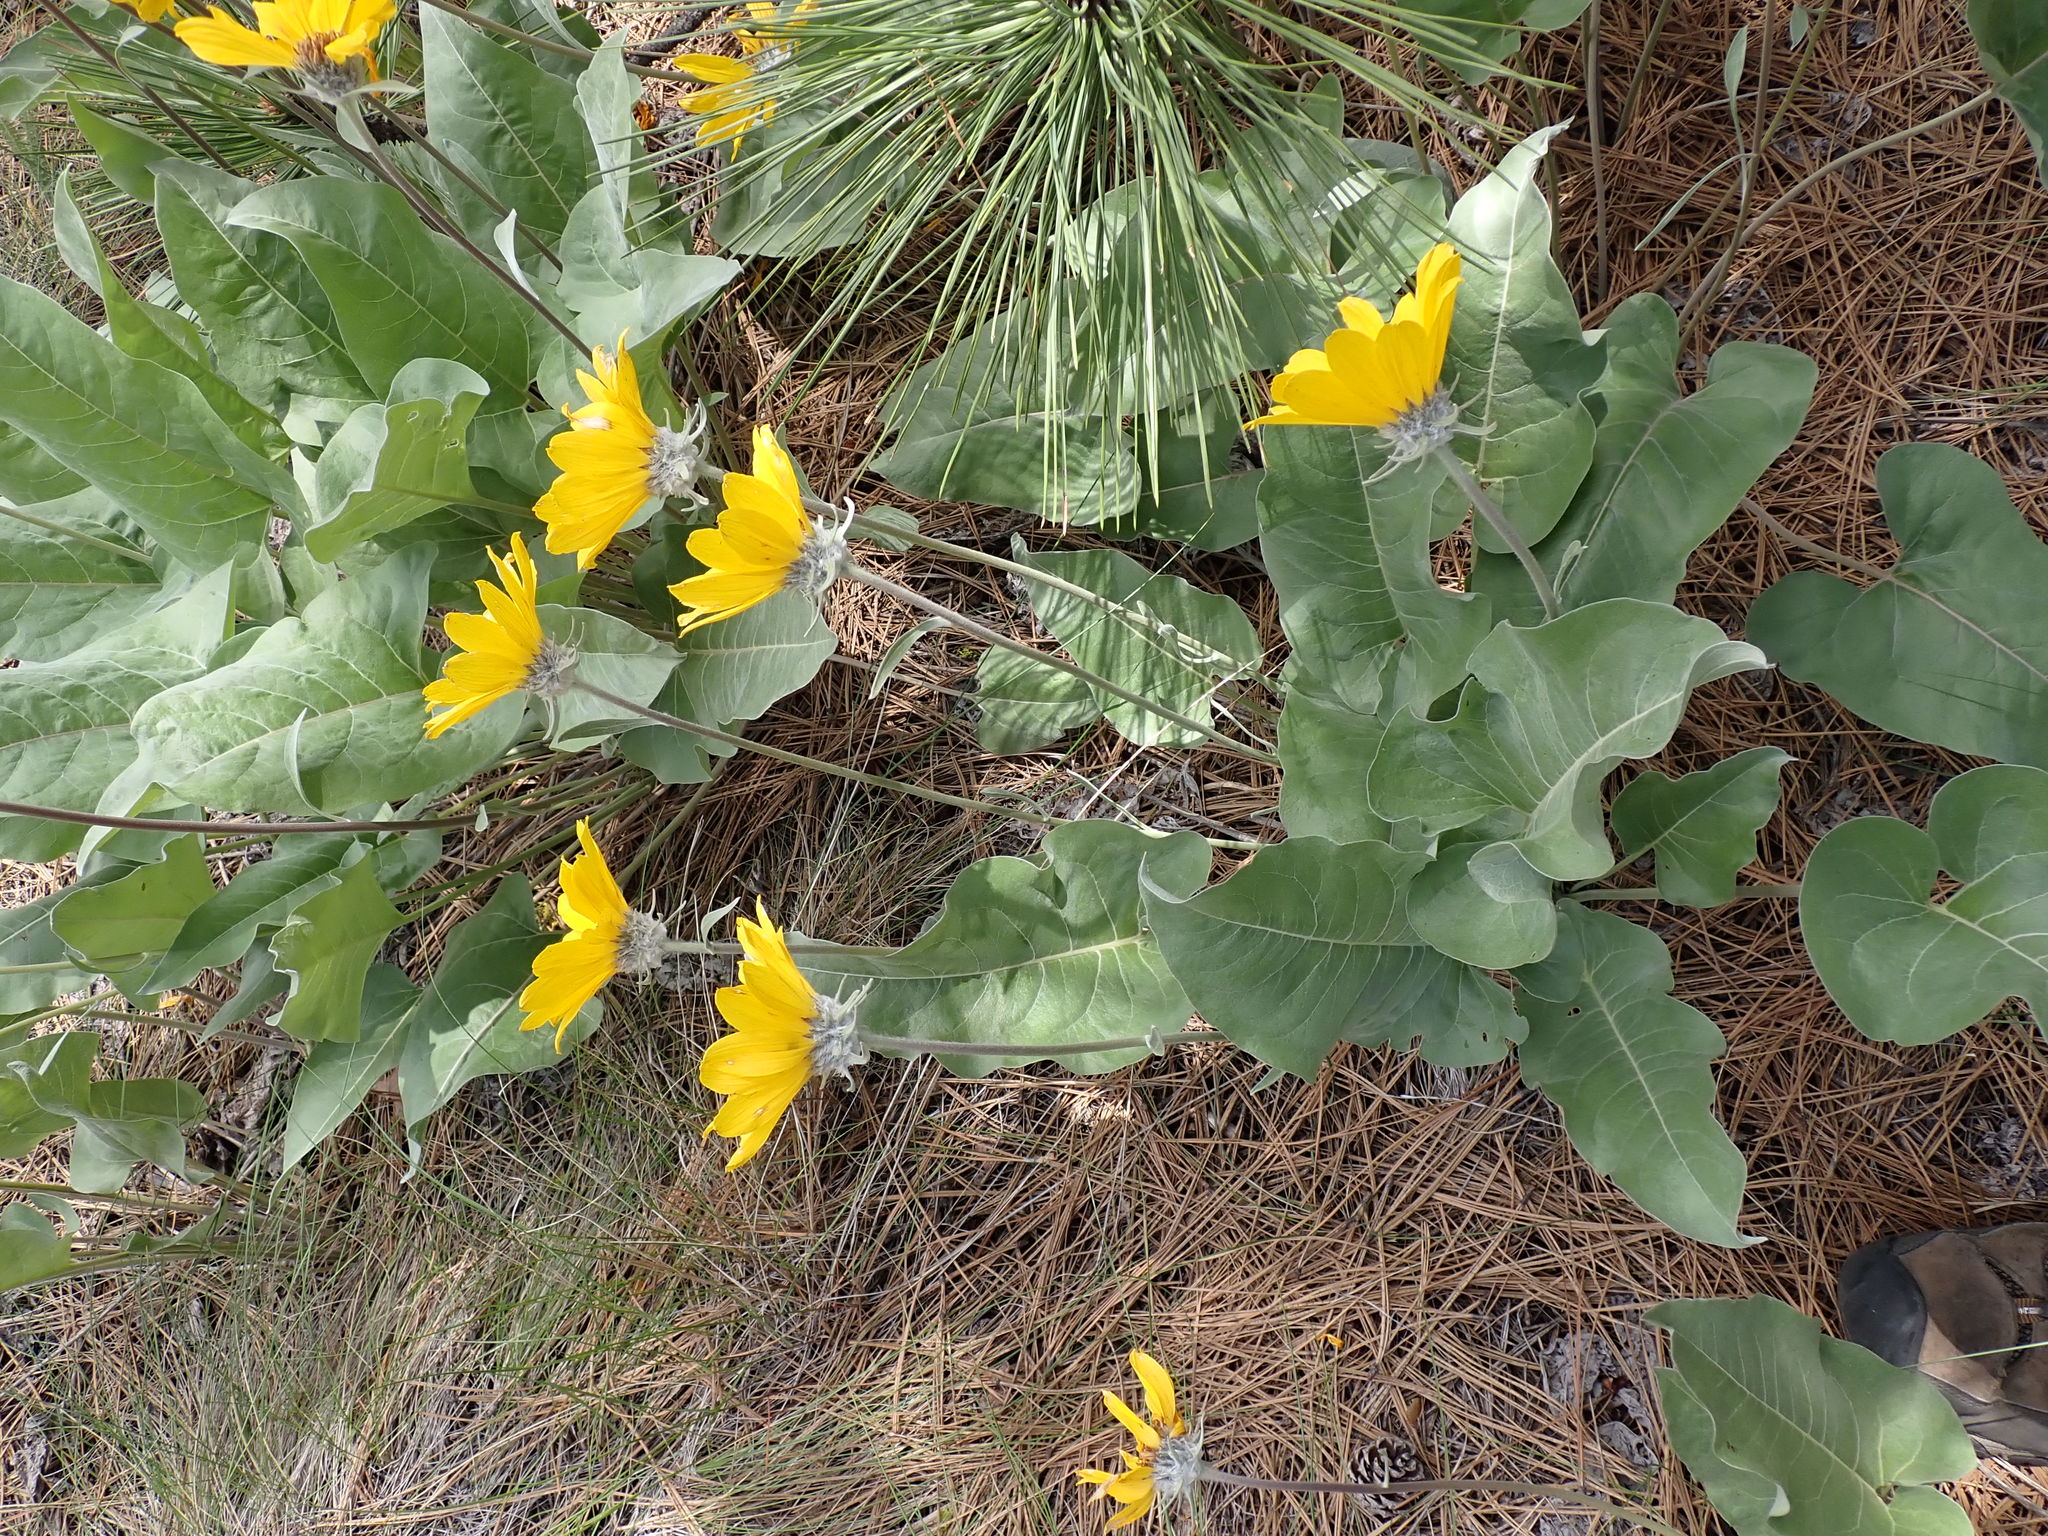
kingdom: Plantae
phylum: Tracheophyta
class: Magnoliopsida
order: Asterales
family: Asteraceae
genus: Wyethia
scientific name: Wyethia sagittata
